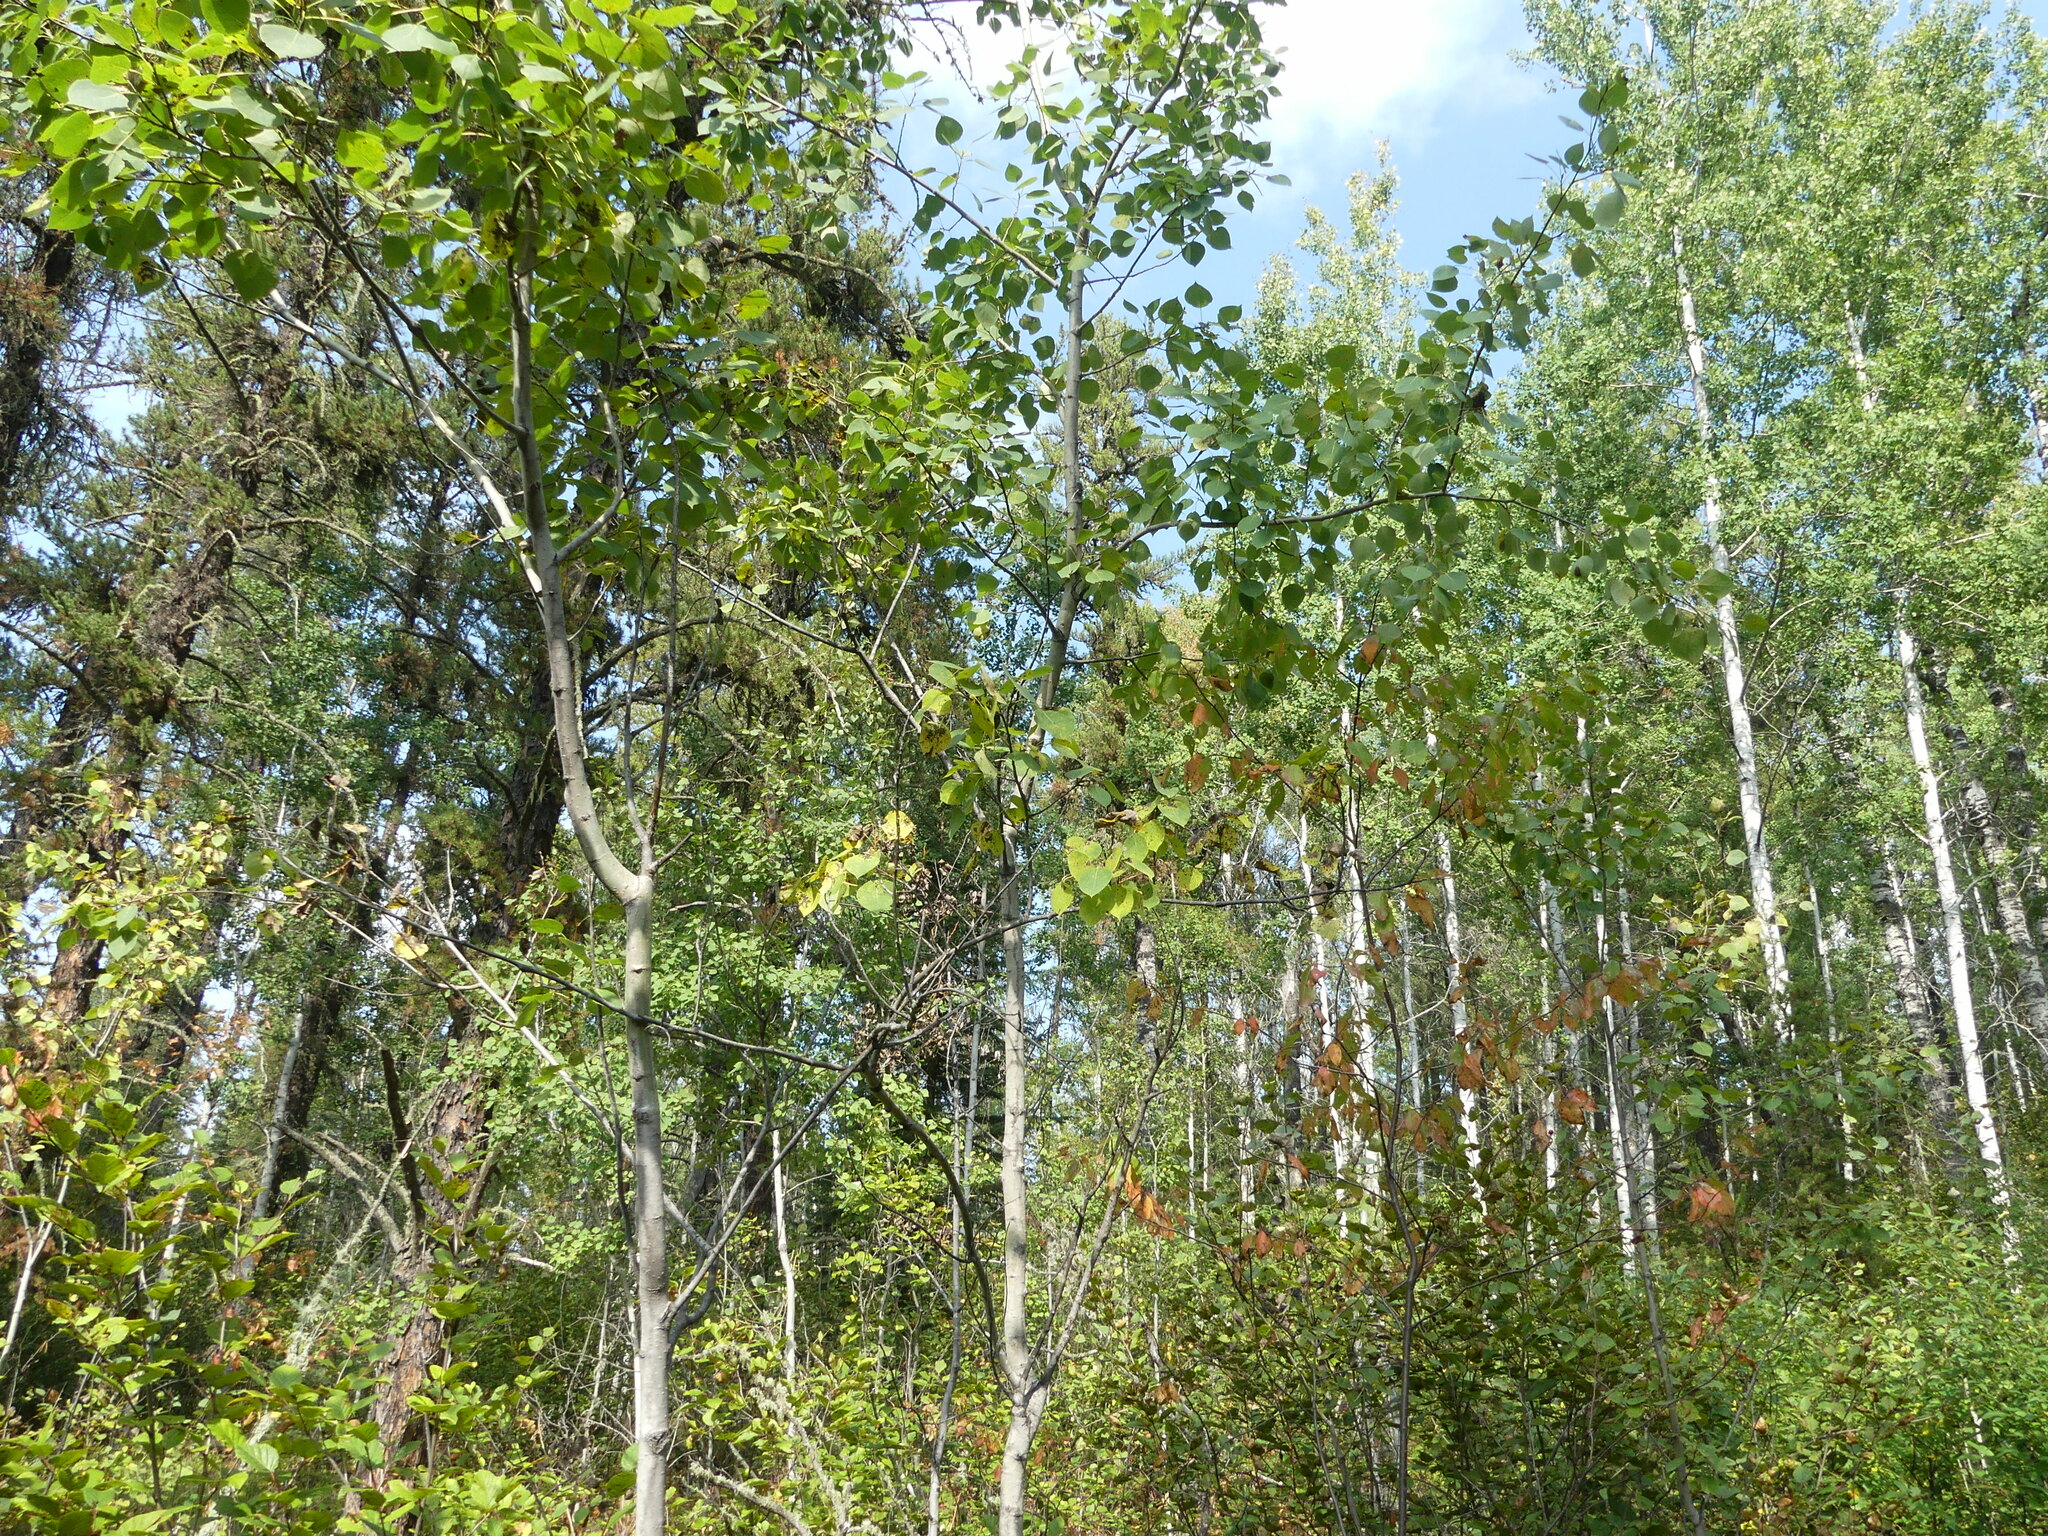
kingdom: Plantae
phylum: Tracheophyta
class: Magnoliopsida
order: Malpighiales
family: Salicaceae
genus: Populus
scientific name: Populus tremuloides
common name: Quaking aspen
